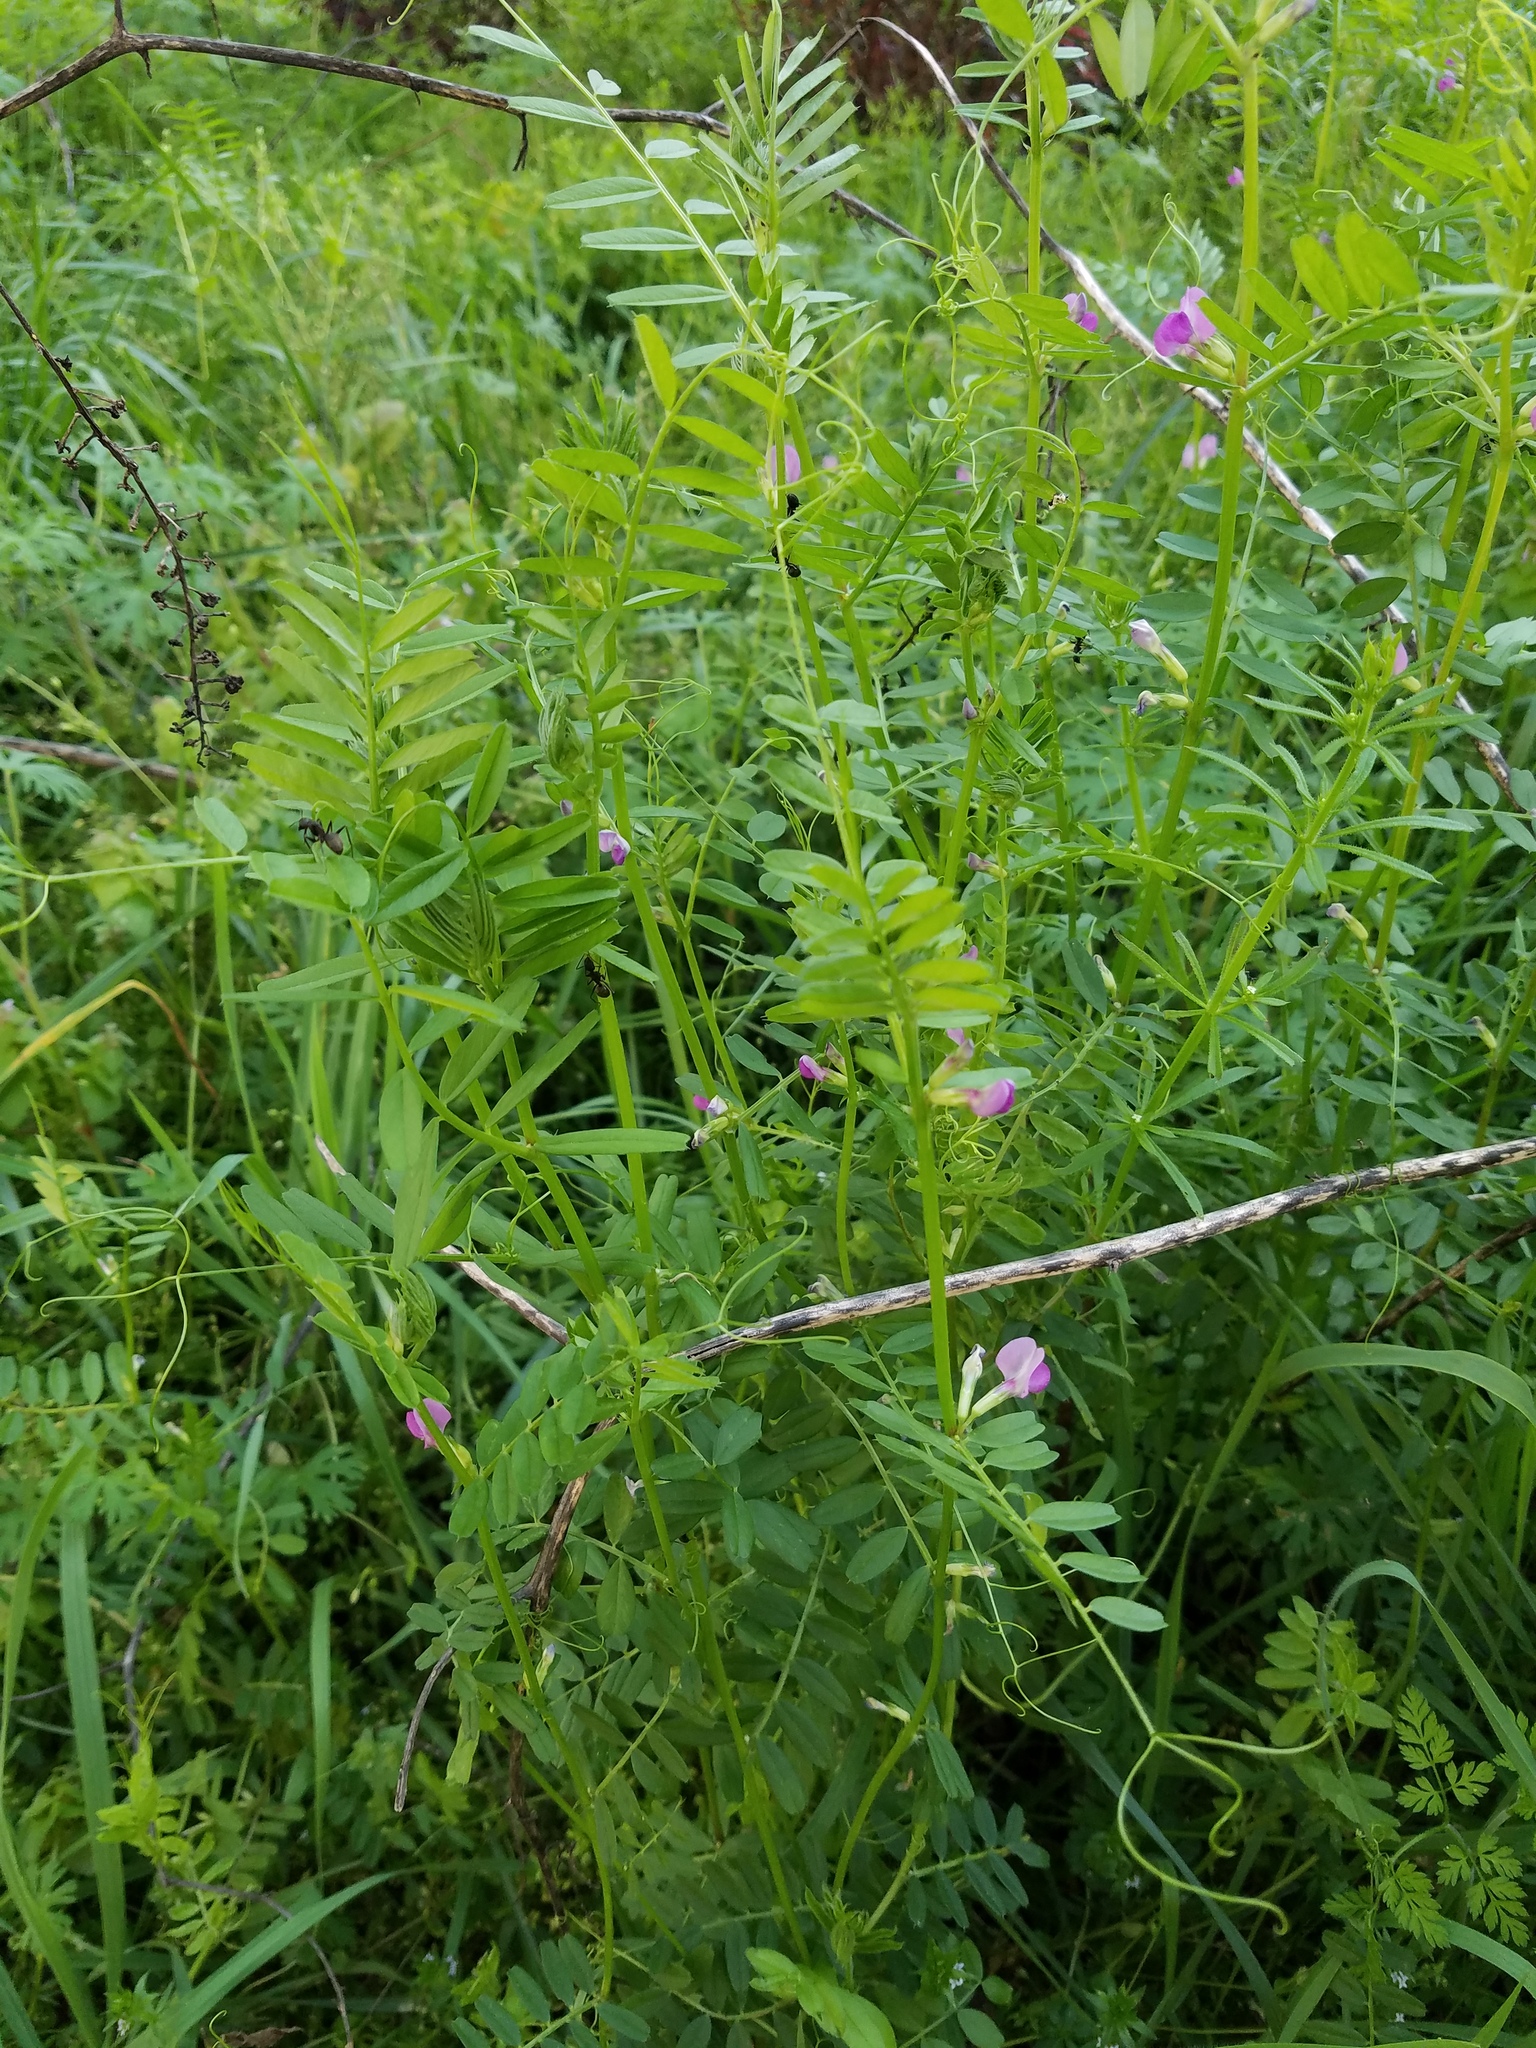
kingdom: Plantae
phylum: Tracheophyta
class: Magnoliopsida
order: Fabales
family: Fabaceae
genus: Vicia
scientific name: Vicia sativa
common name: Garden vetch
